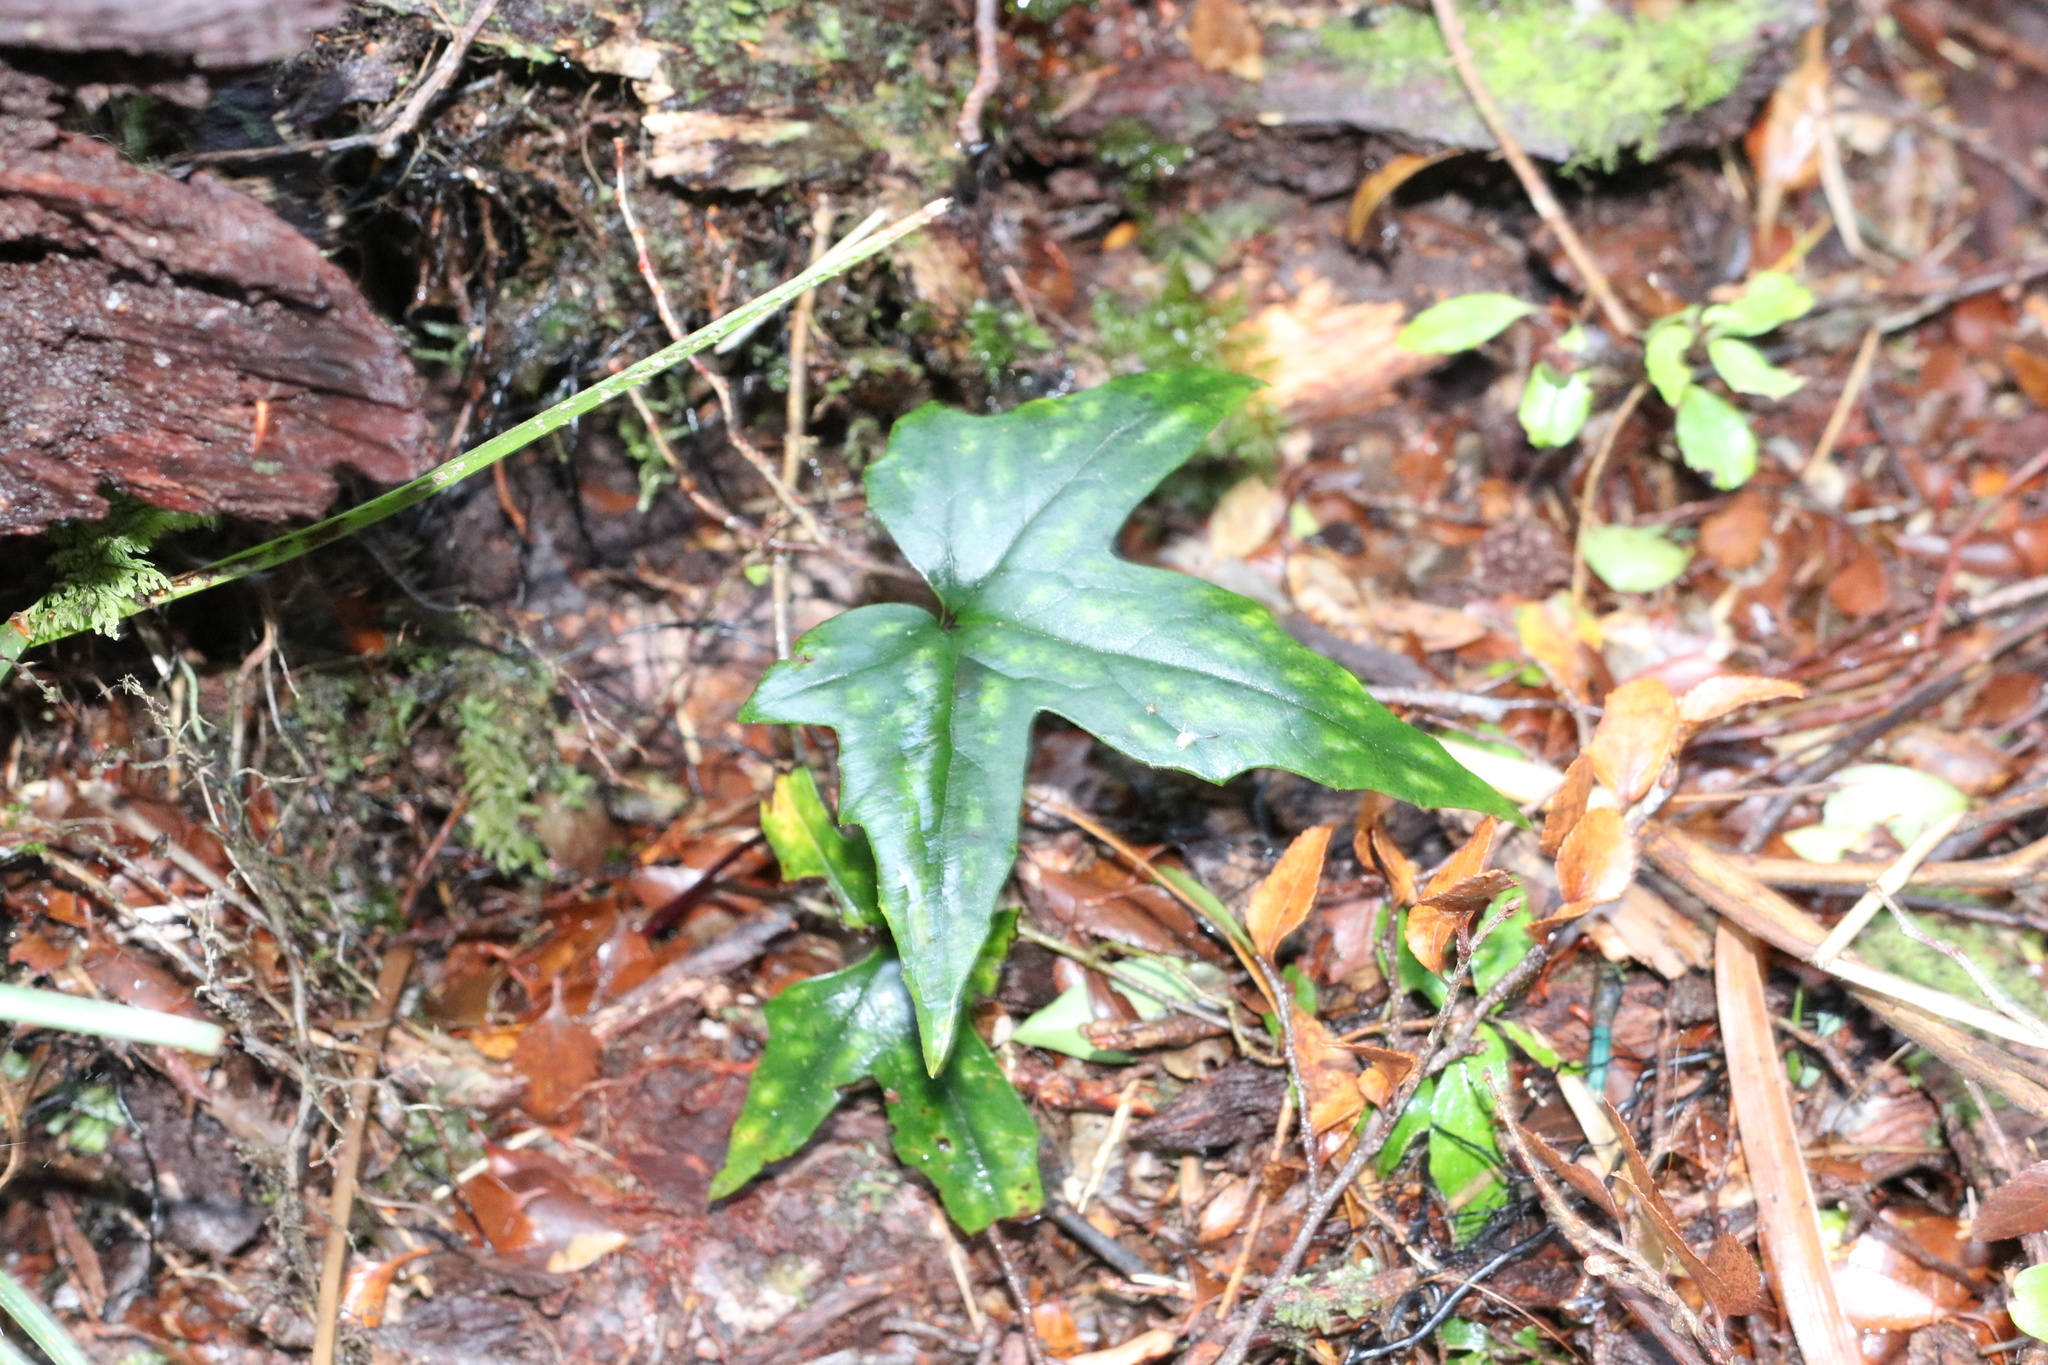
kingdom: Plantae
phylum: Tracheophyta
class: Magnoliopsida
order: Ranunculales
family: Ranunculaceae
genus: Knowltonia
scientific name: Knowltonia hepaticifolia
